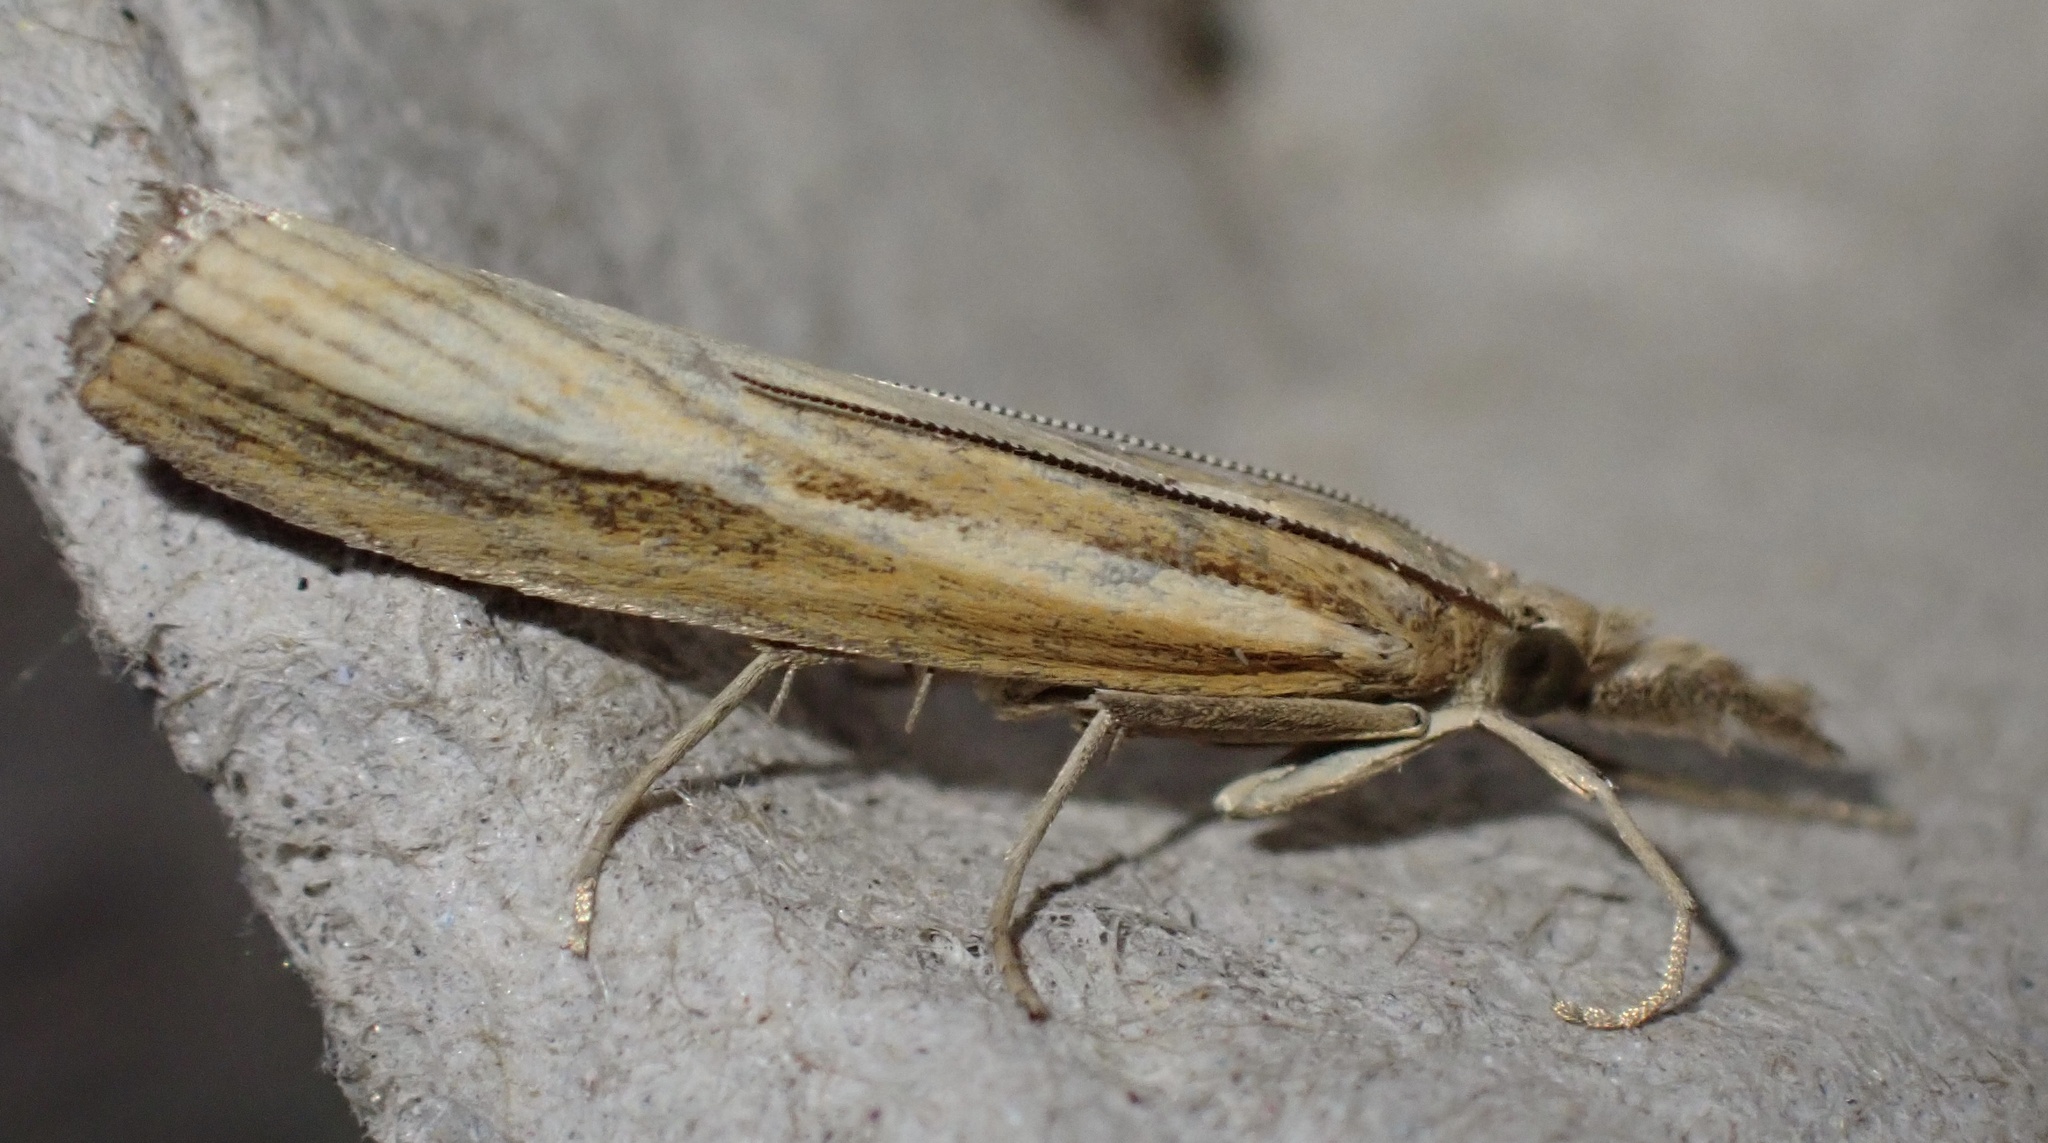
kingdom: Animalia
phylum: Arthropoda
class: Insecta
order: Lepidoptera
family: Crambidae
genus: Agriphila
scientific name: Agriphila tristellus
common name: Common grass-veneer
